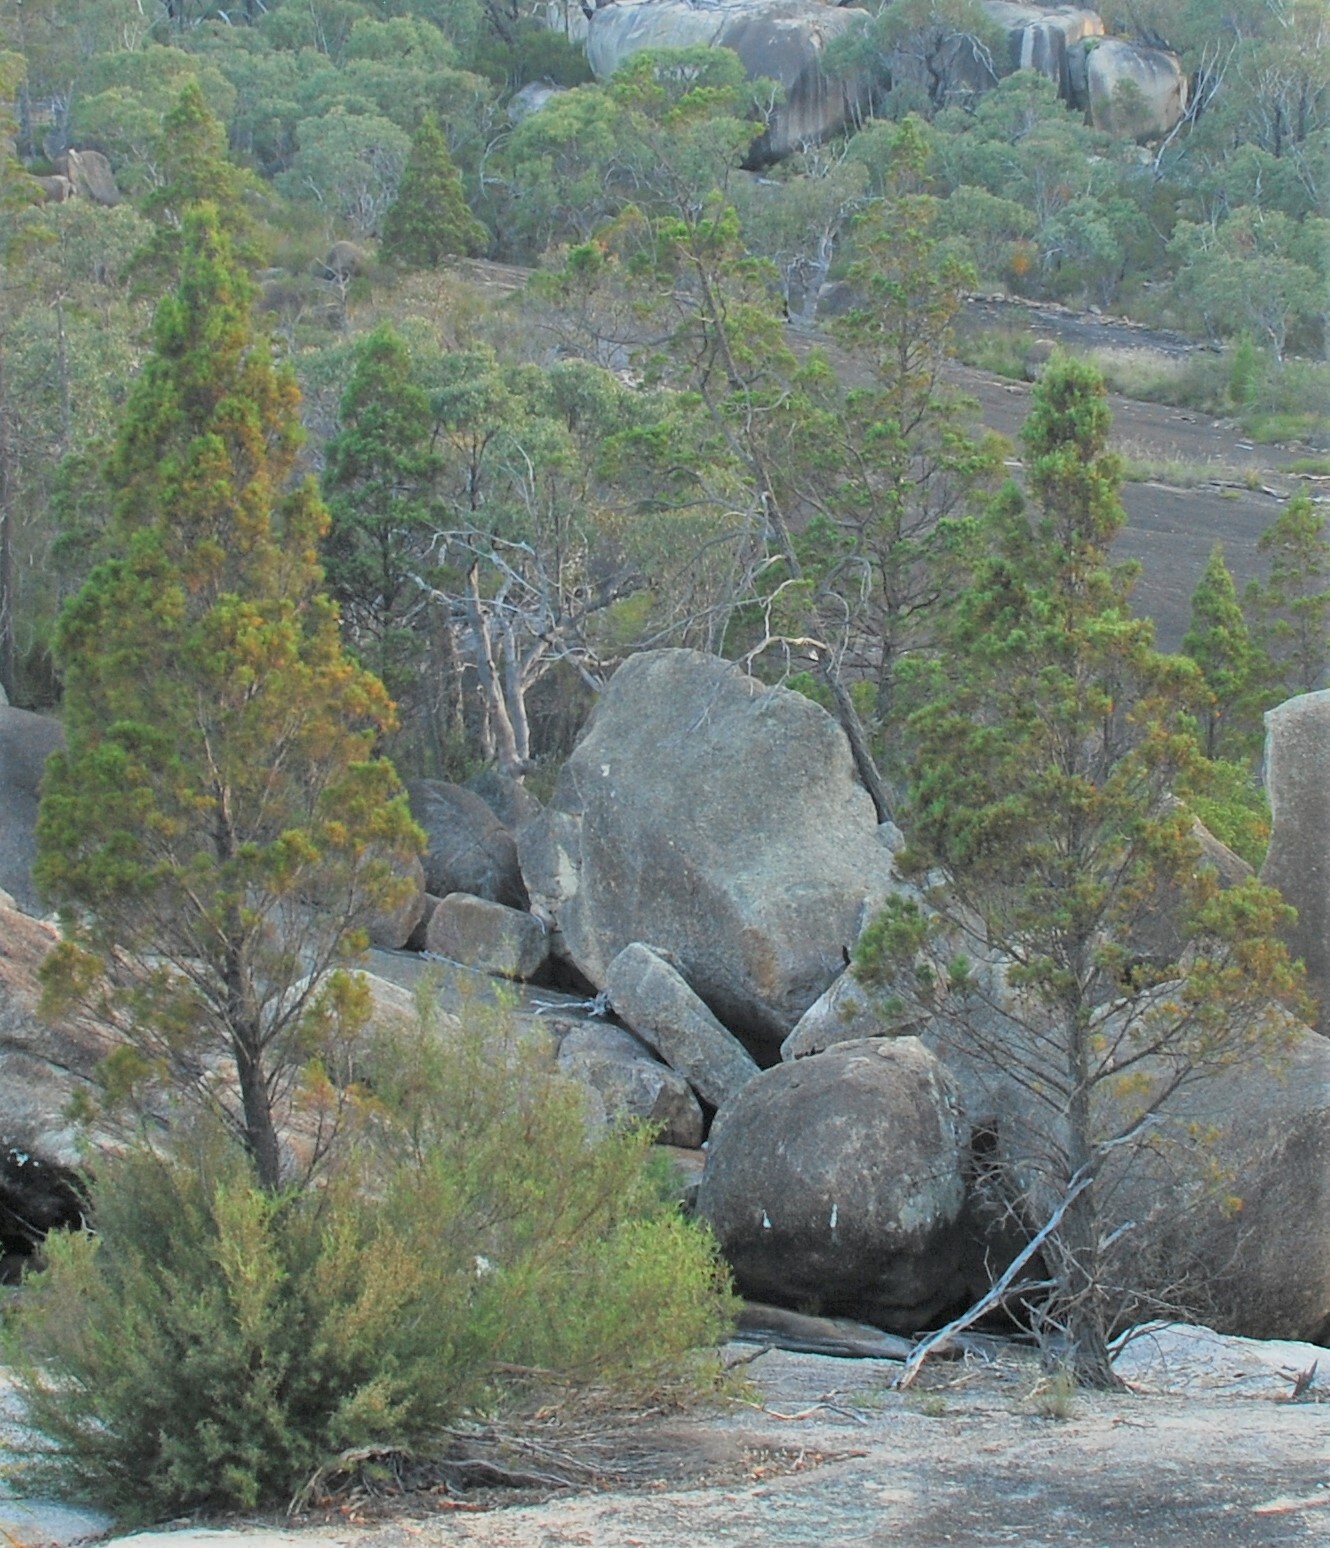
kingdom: Plantae
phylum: Tracheophyta
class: Pinopsida
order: Pinales
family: Cupressaceae
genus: Callitris
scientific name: Callitris endlicheri
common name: Black cypress-pine
